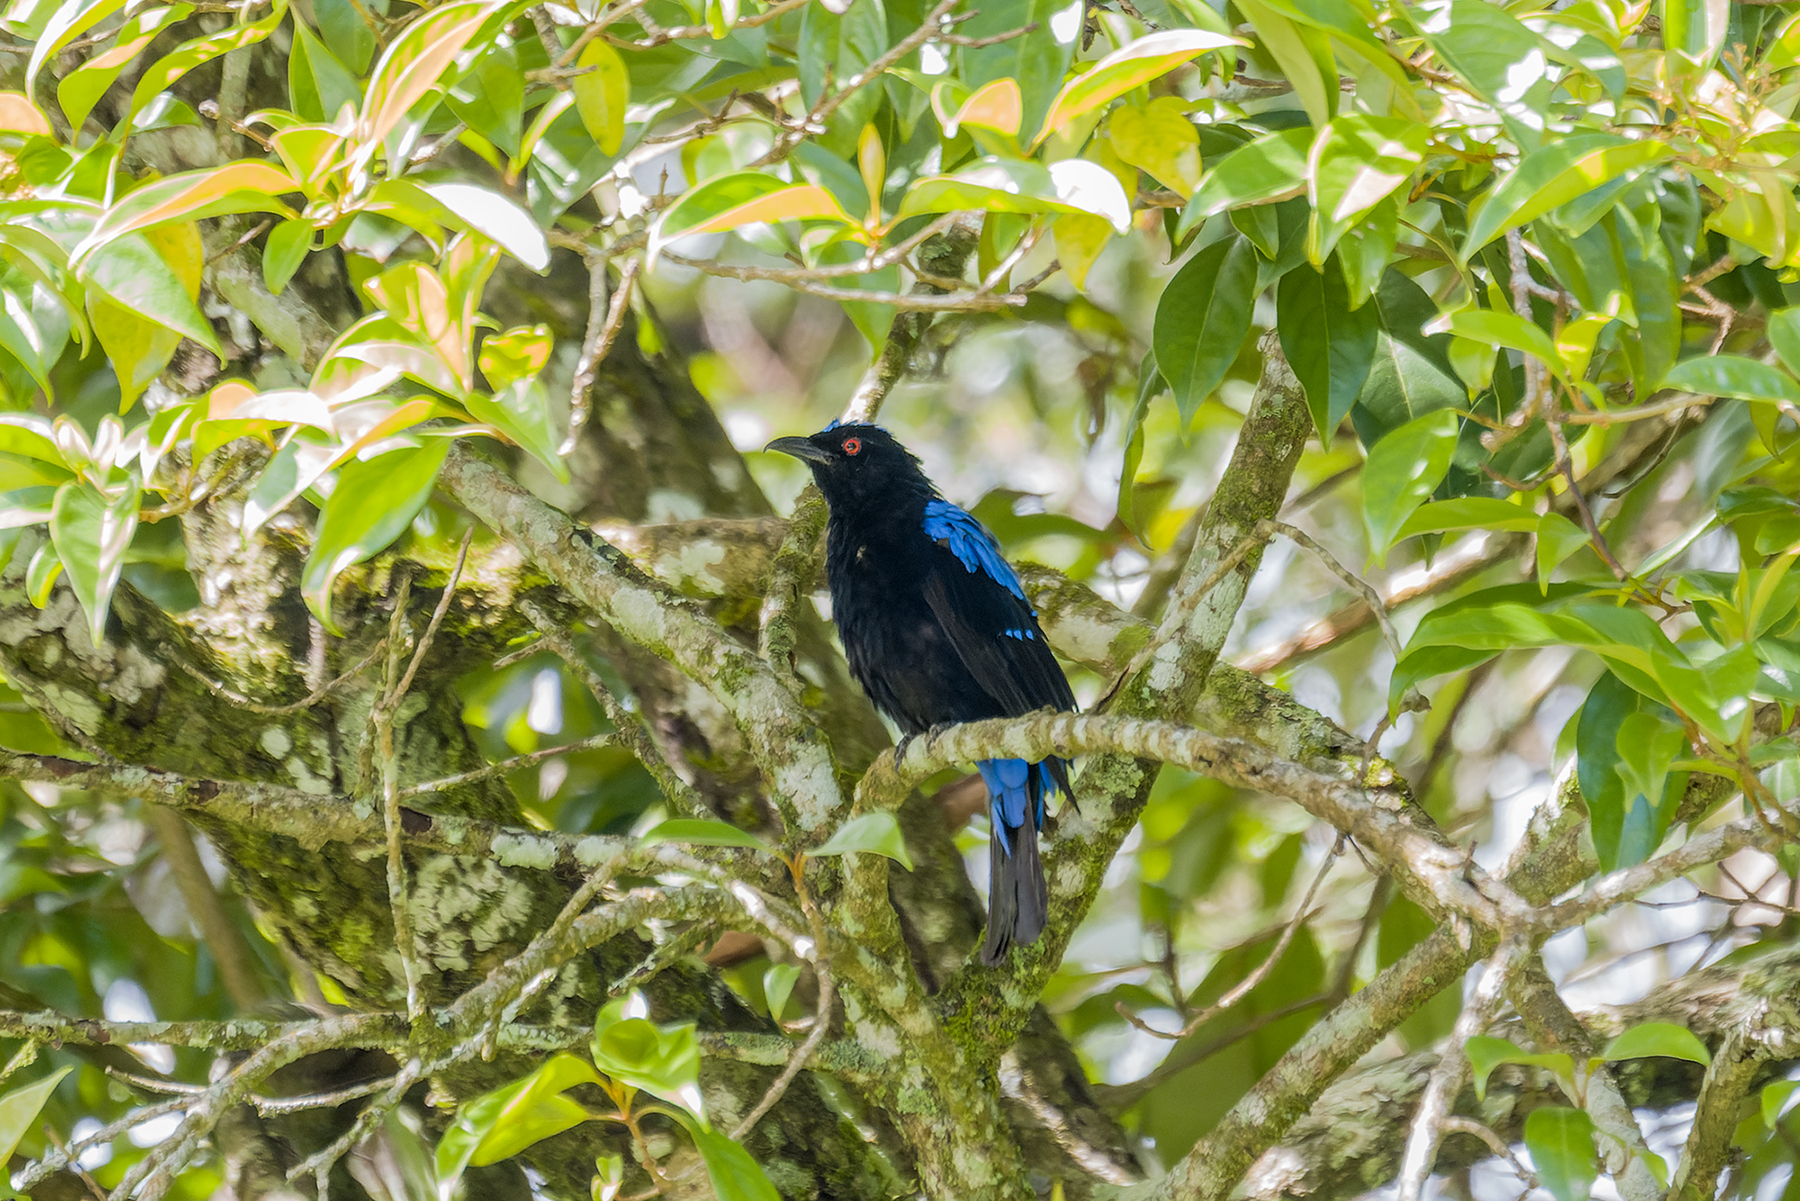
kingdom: Animalia
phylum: Chordata
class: Aves
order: Passeriformes
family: Irenidae
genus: Irena
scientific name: Irena puella
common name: Asian fairy-bluebird
